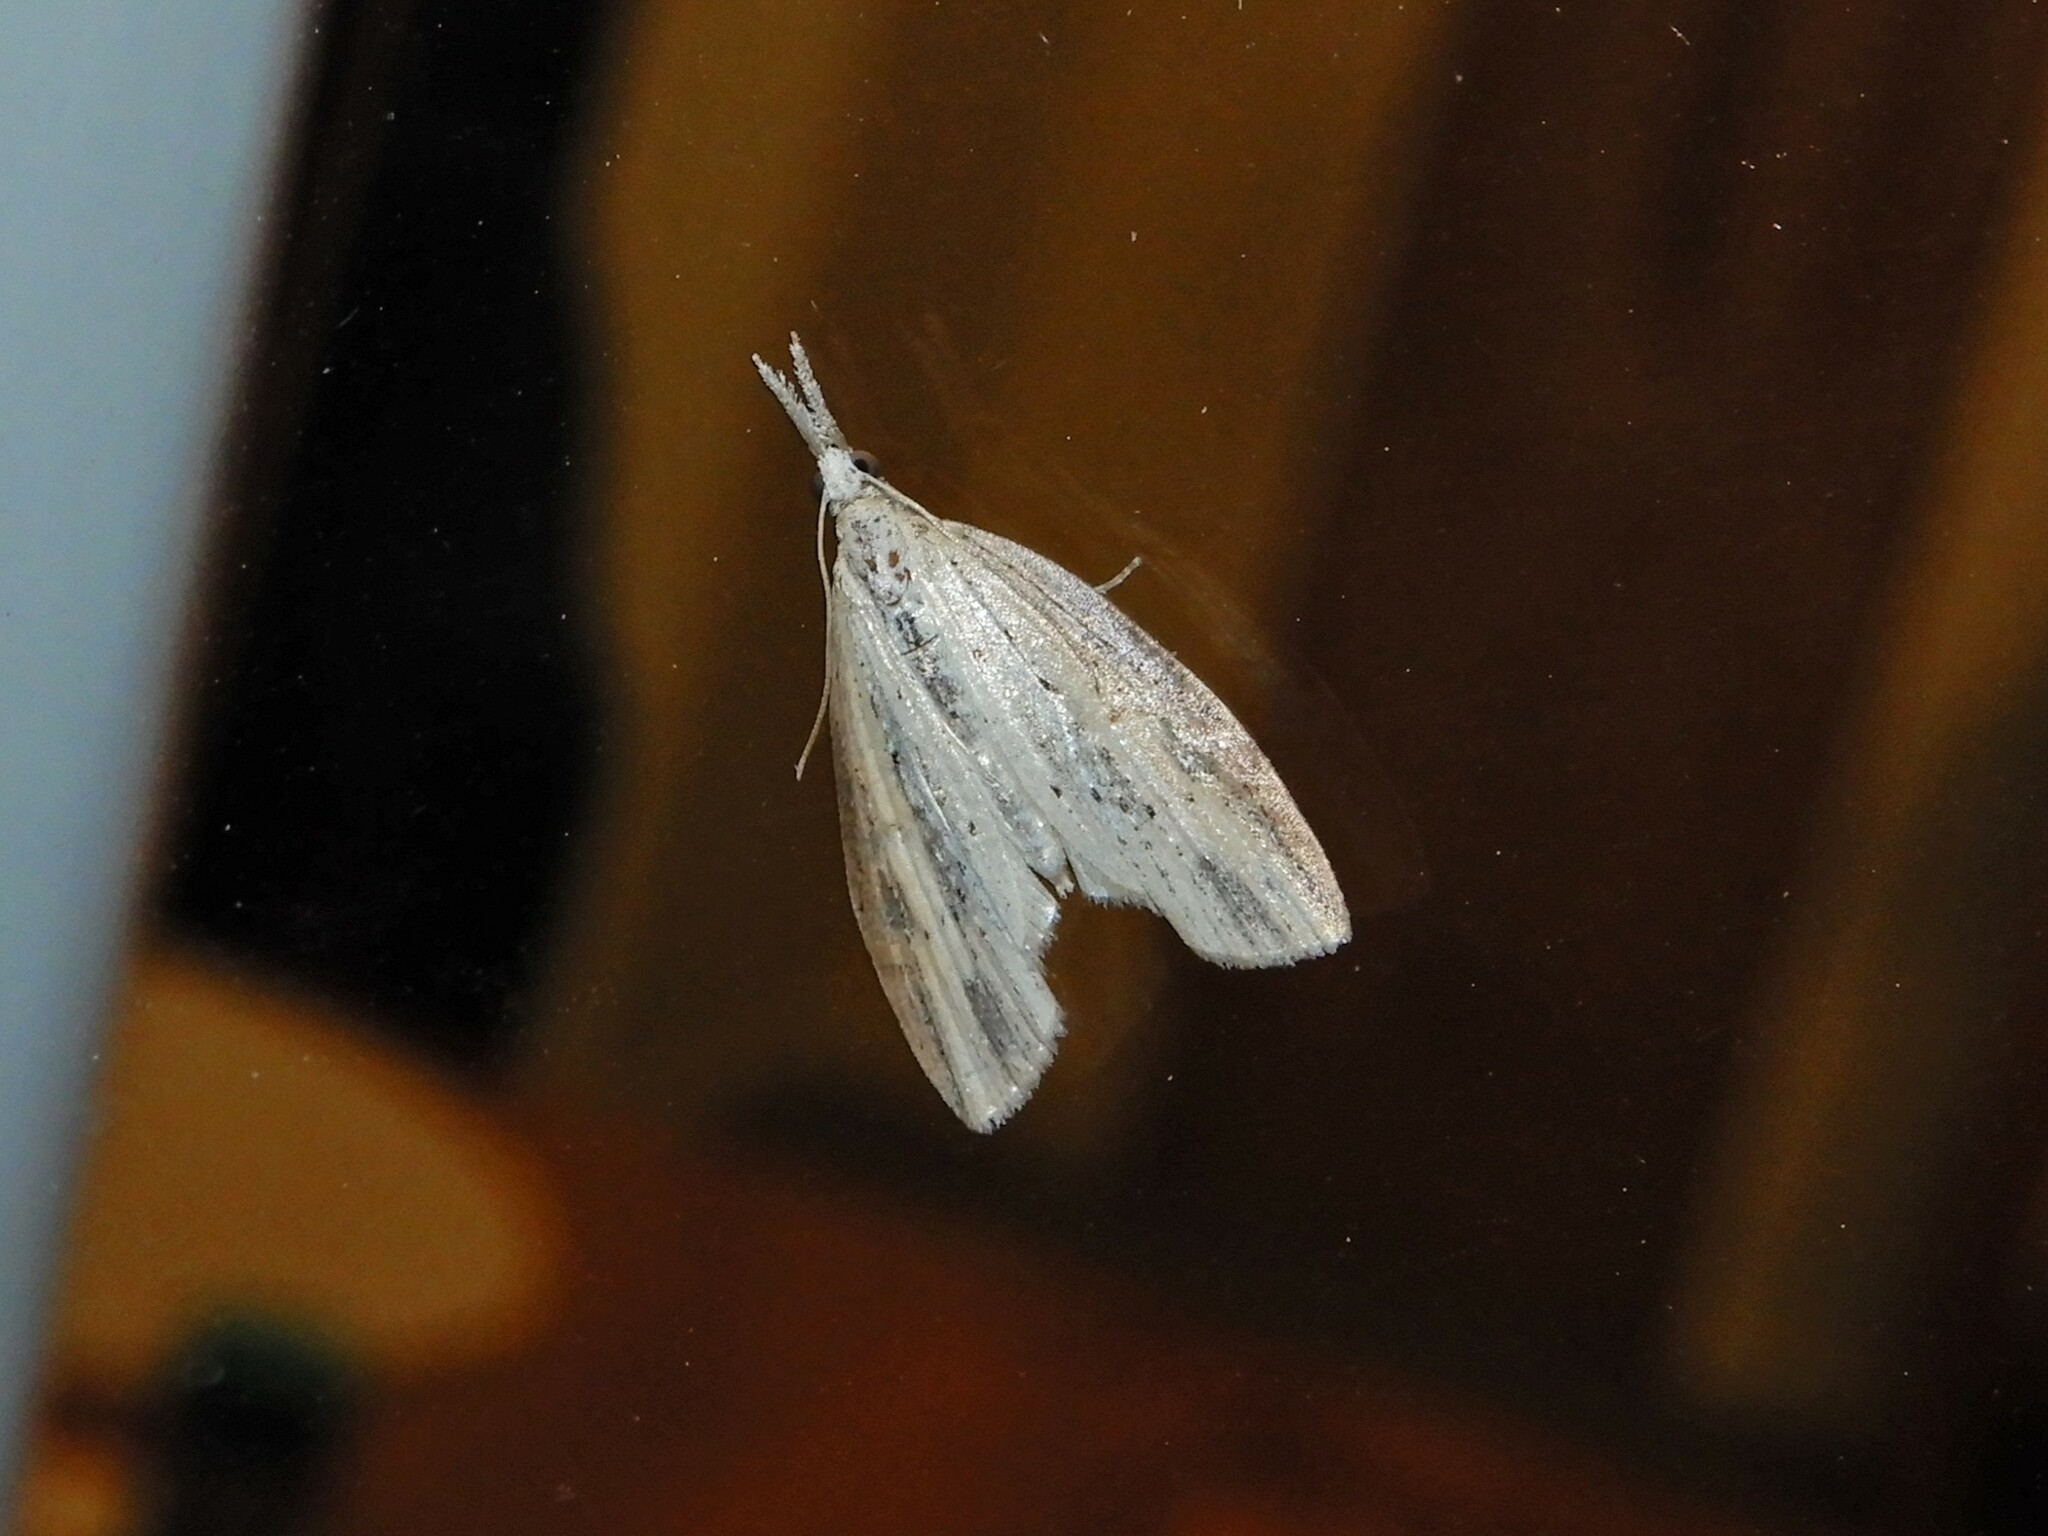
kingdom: Animalia
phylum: Arthropoda
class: Insecta
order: Lepidoptera
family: Geometridae
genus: Microdes
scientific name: Microdes epicryptis
